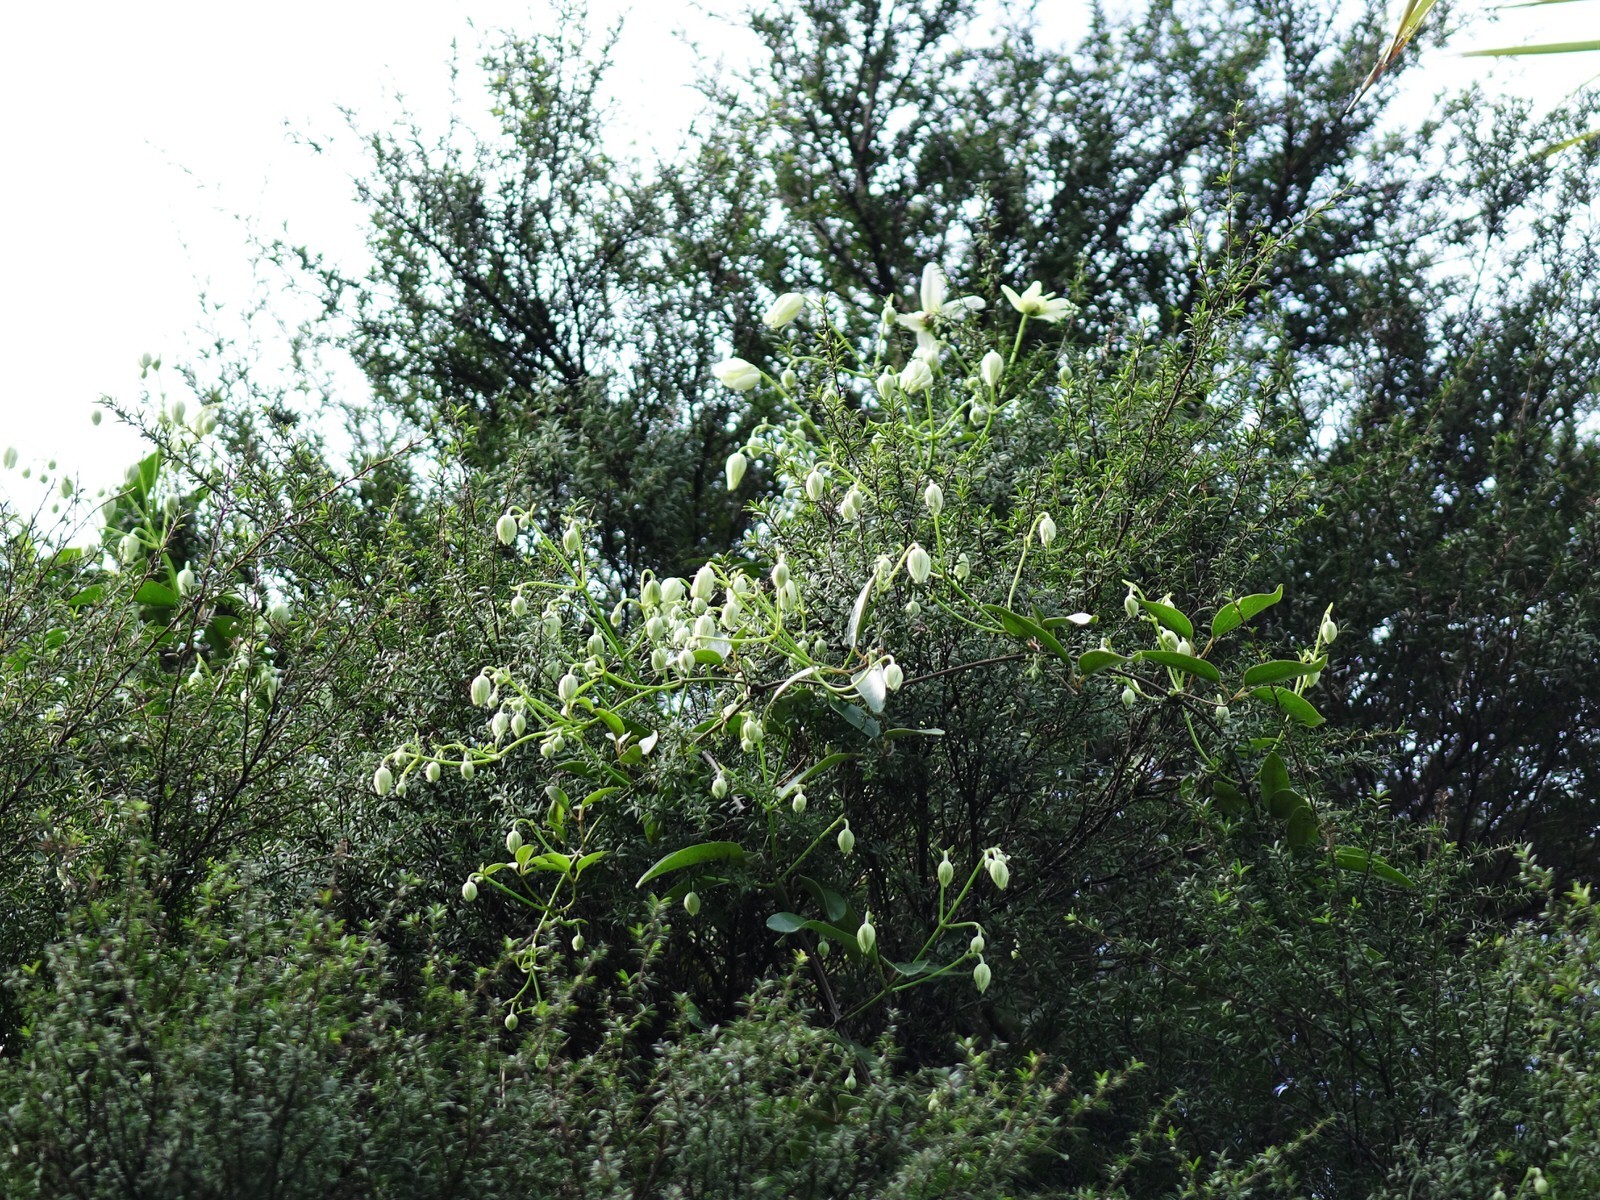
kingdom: Plantae
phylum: Tracheophyta
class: Magnoliopsida
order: Ranunculales
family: Ranunculaceae
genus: Clematis
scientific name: Clematis paniculata
